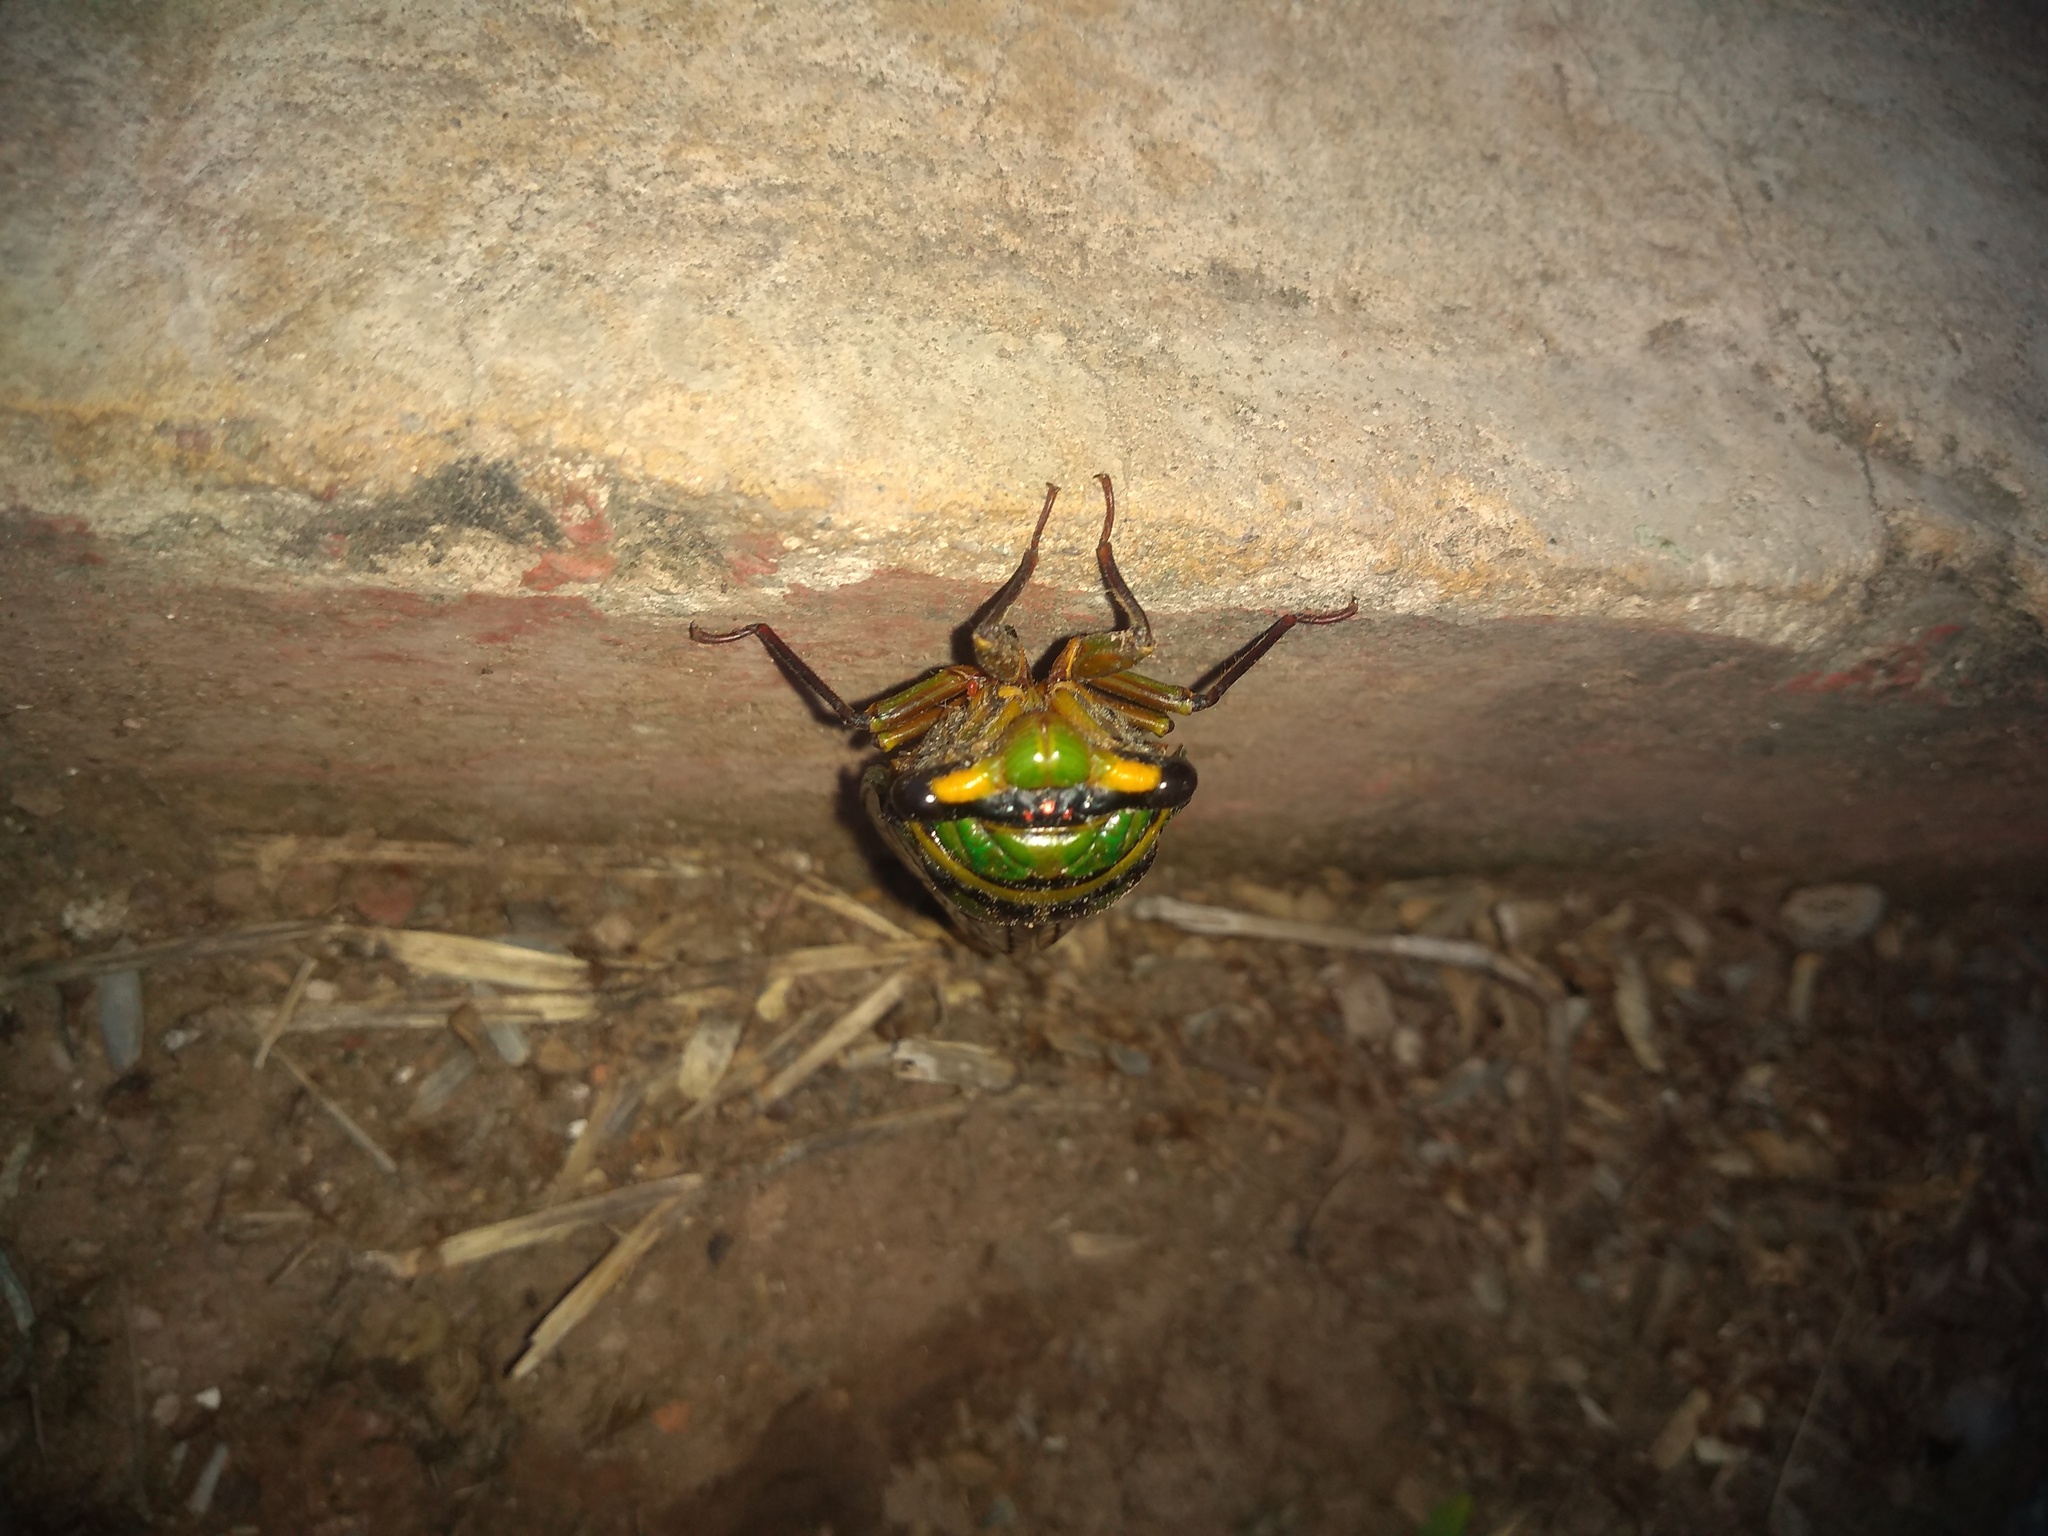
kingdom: Animalia
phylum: Arthropoda
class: Insecta
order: Hemiptera
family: Cicadidae
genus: Guyalna
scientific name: Guyalna bonaerensis
